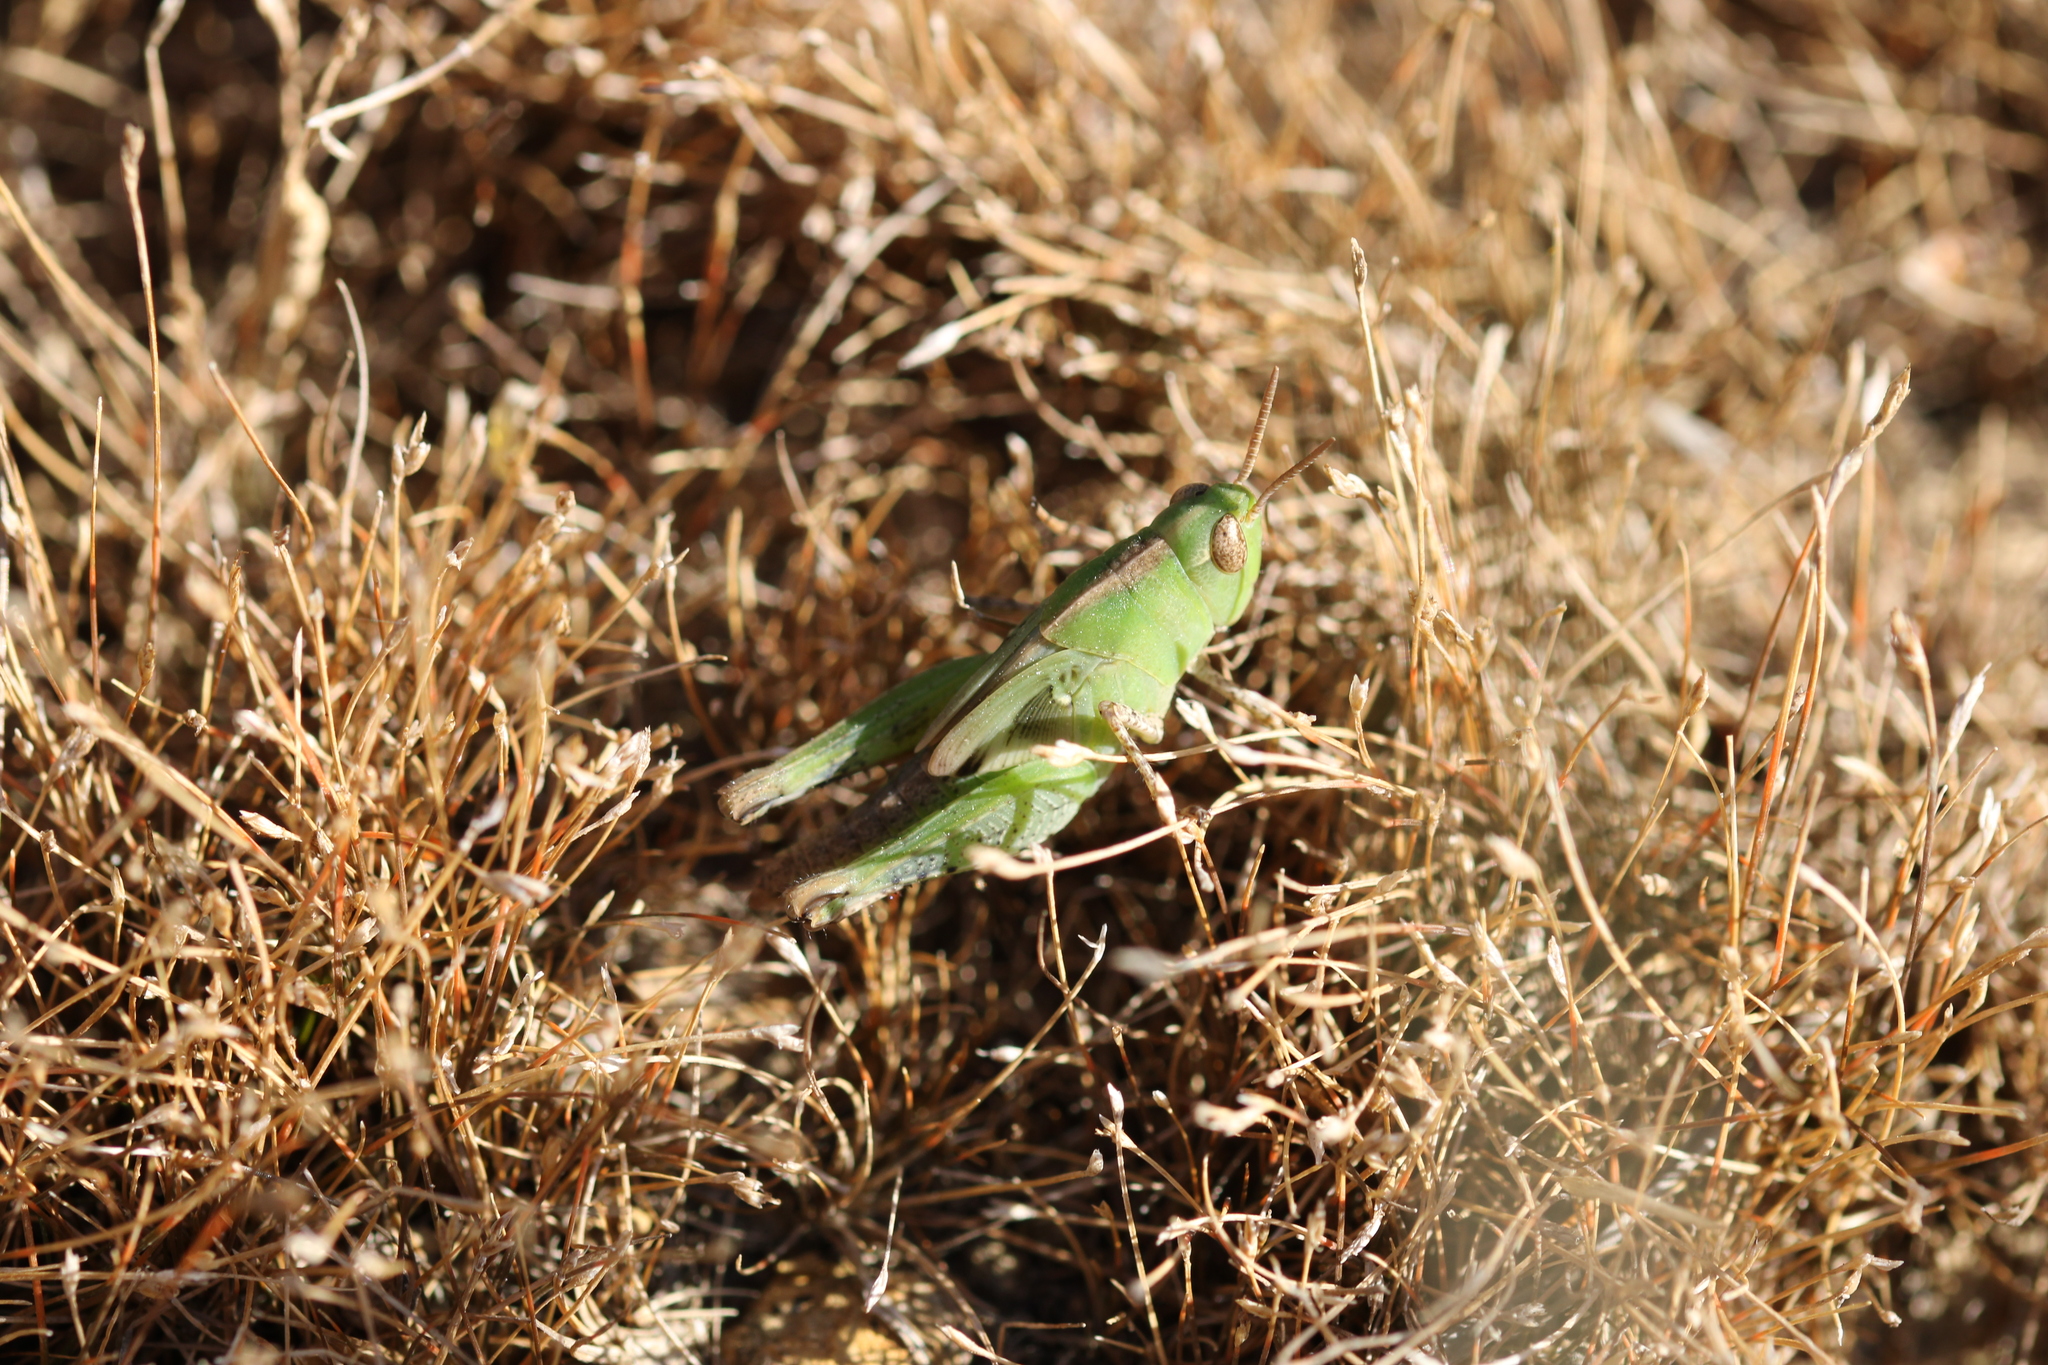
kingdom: Animalia
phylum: Arthropoda
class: Insecta
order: Orthoptera
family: Acrididae
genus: Aiolopus
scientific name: Aiolopus strepens
